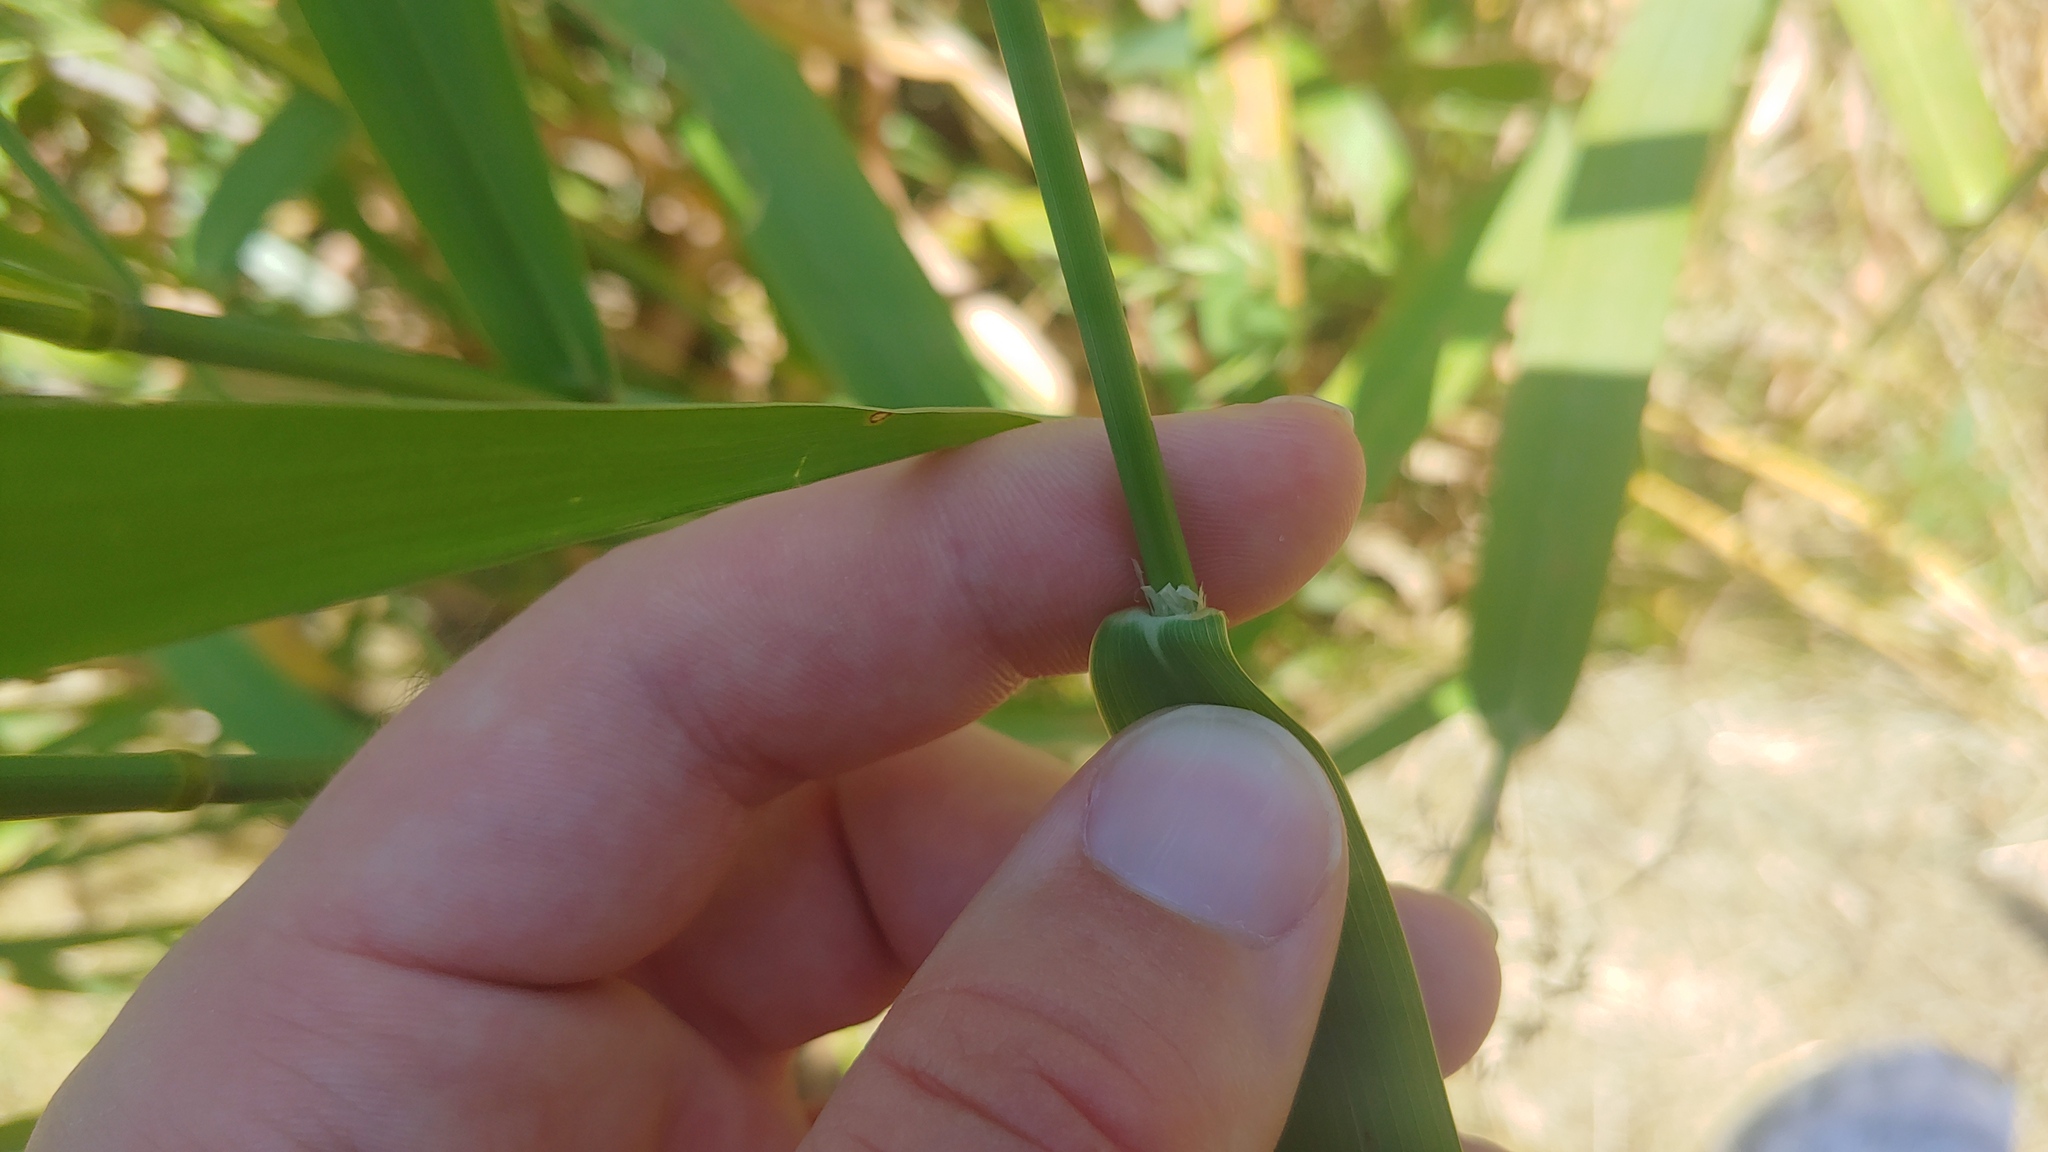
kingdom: Plantae
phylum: Tracheophyta
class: Liliopsida
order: Poales
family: Poaceae
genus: Phalaris
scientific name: Phalaris arundinacea
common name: Reed canary-grass
